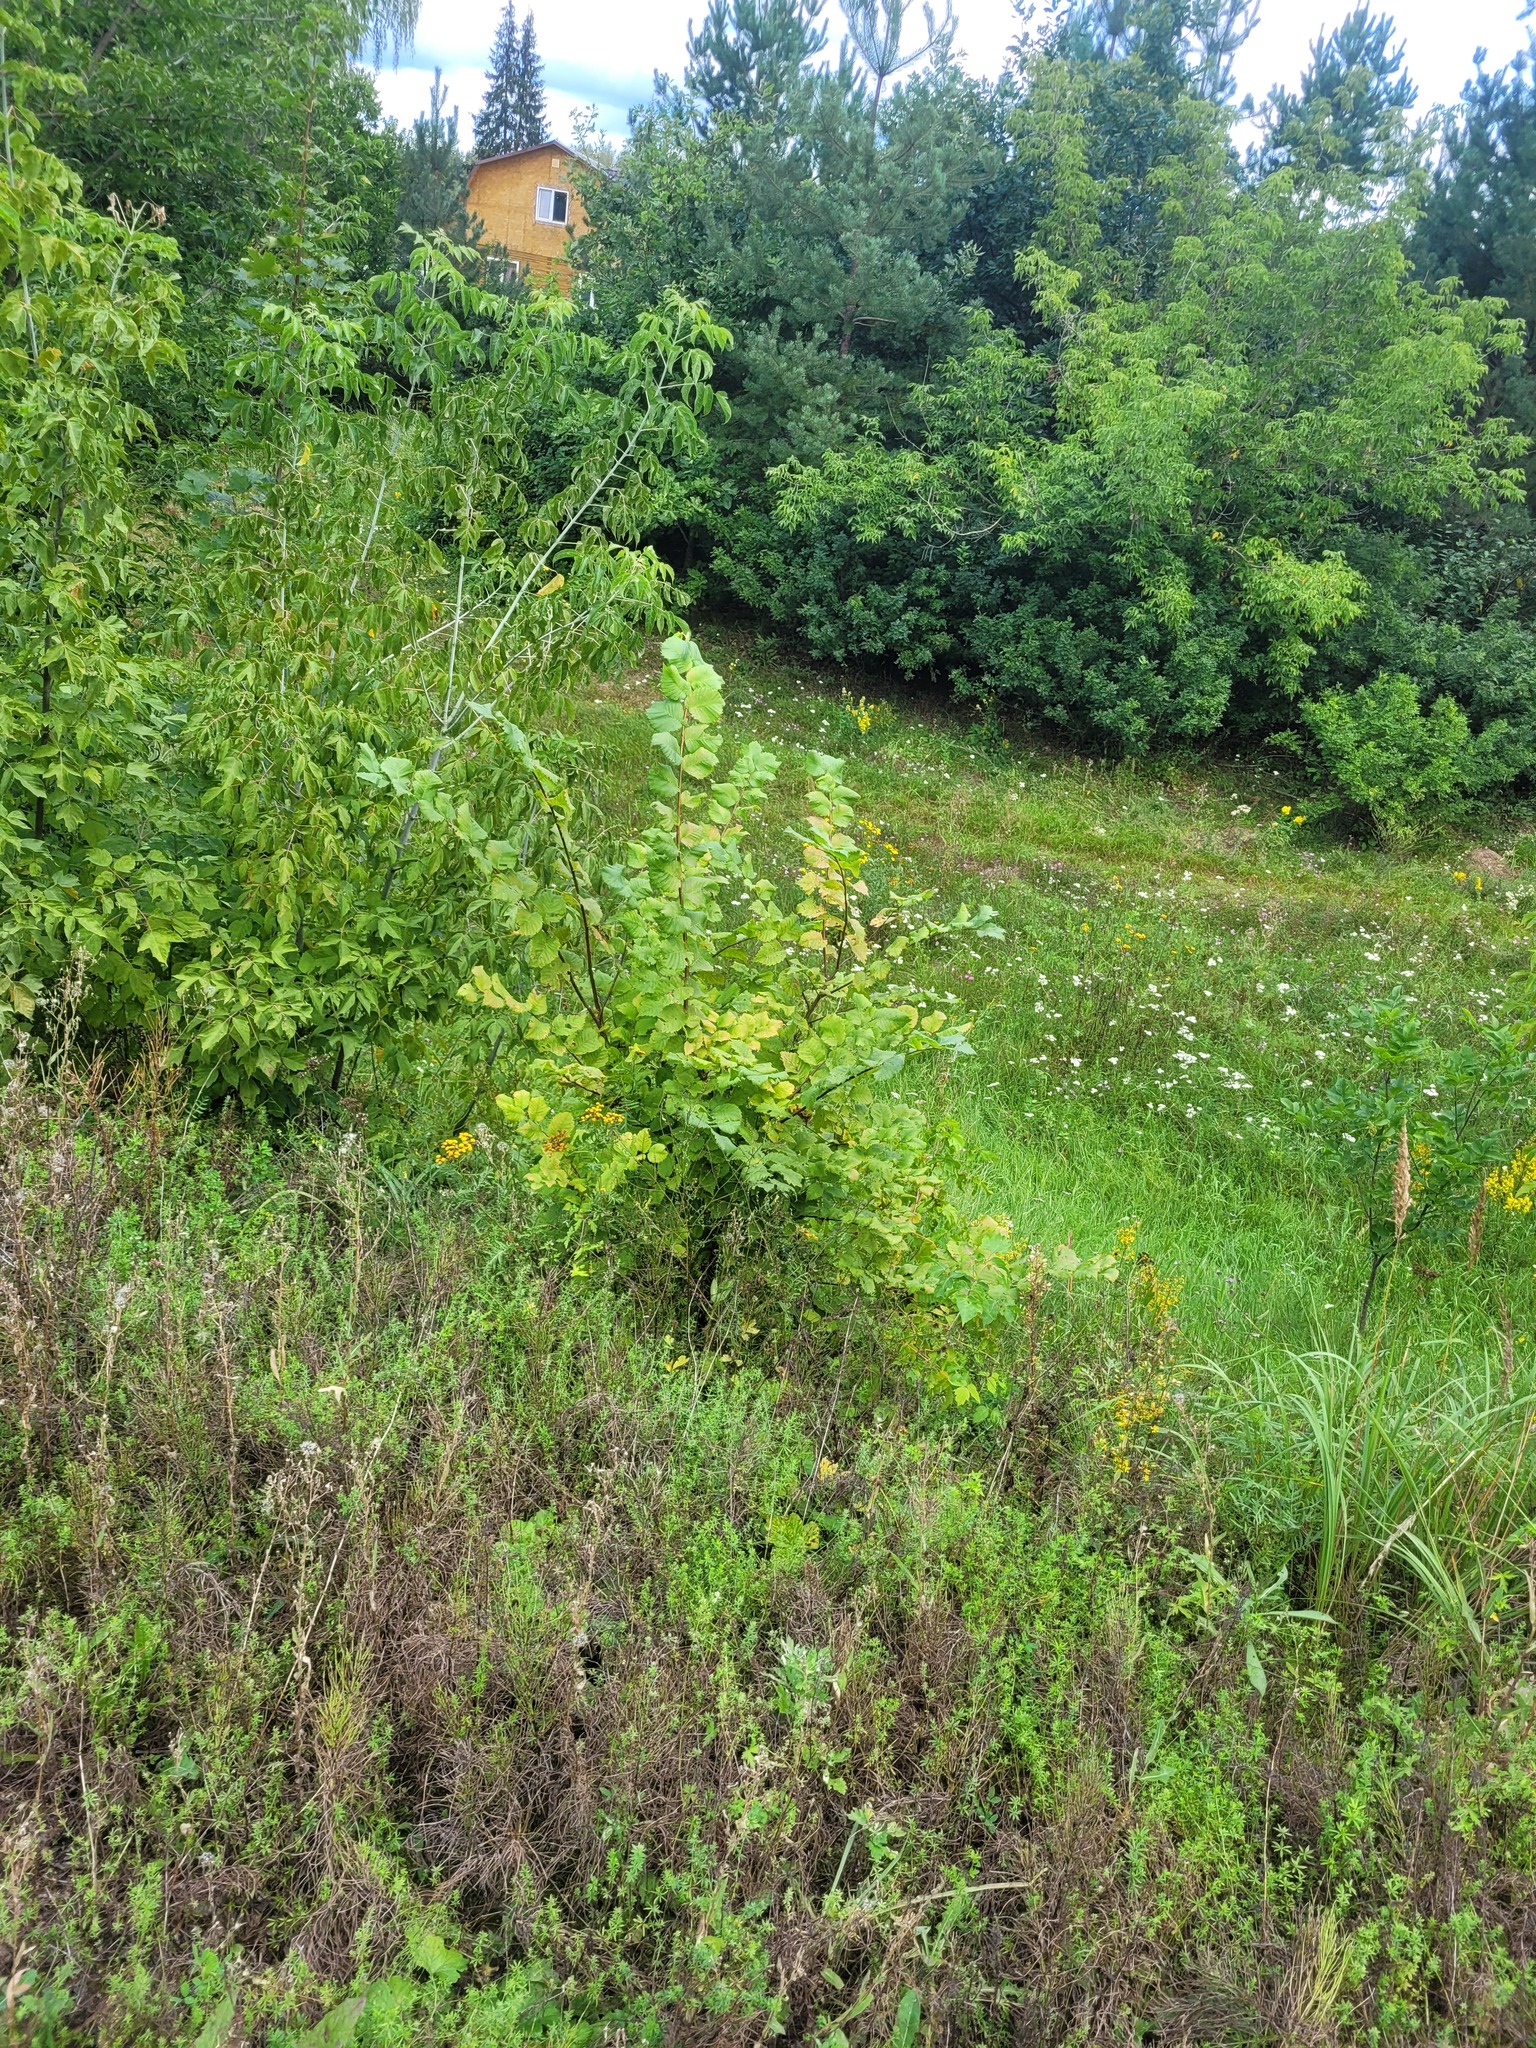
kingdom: Plantae
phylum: Tracheophyta
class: Magnoliopsida
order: Rosales
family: Ulmaceae
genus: Ulmus
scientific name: Ulmus laevis
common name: European white-elm
